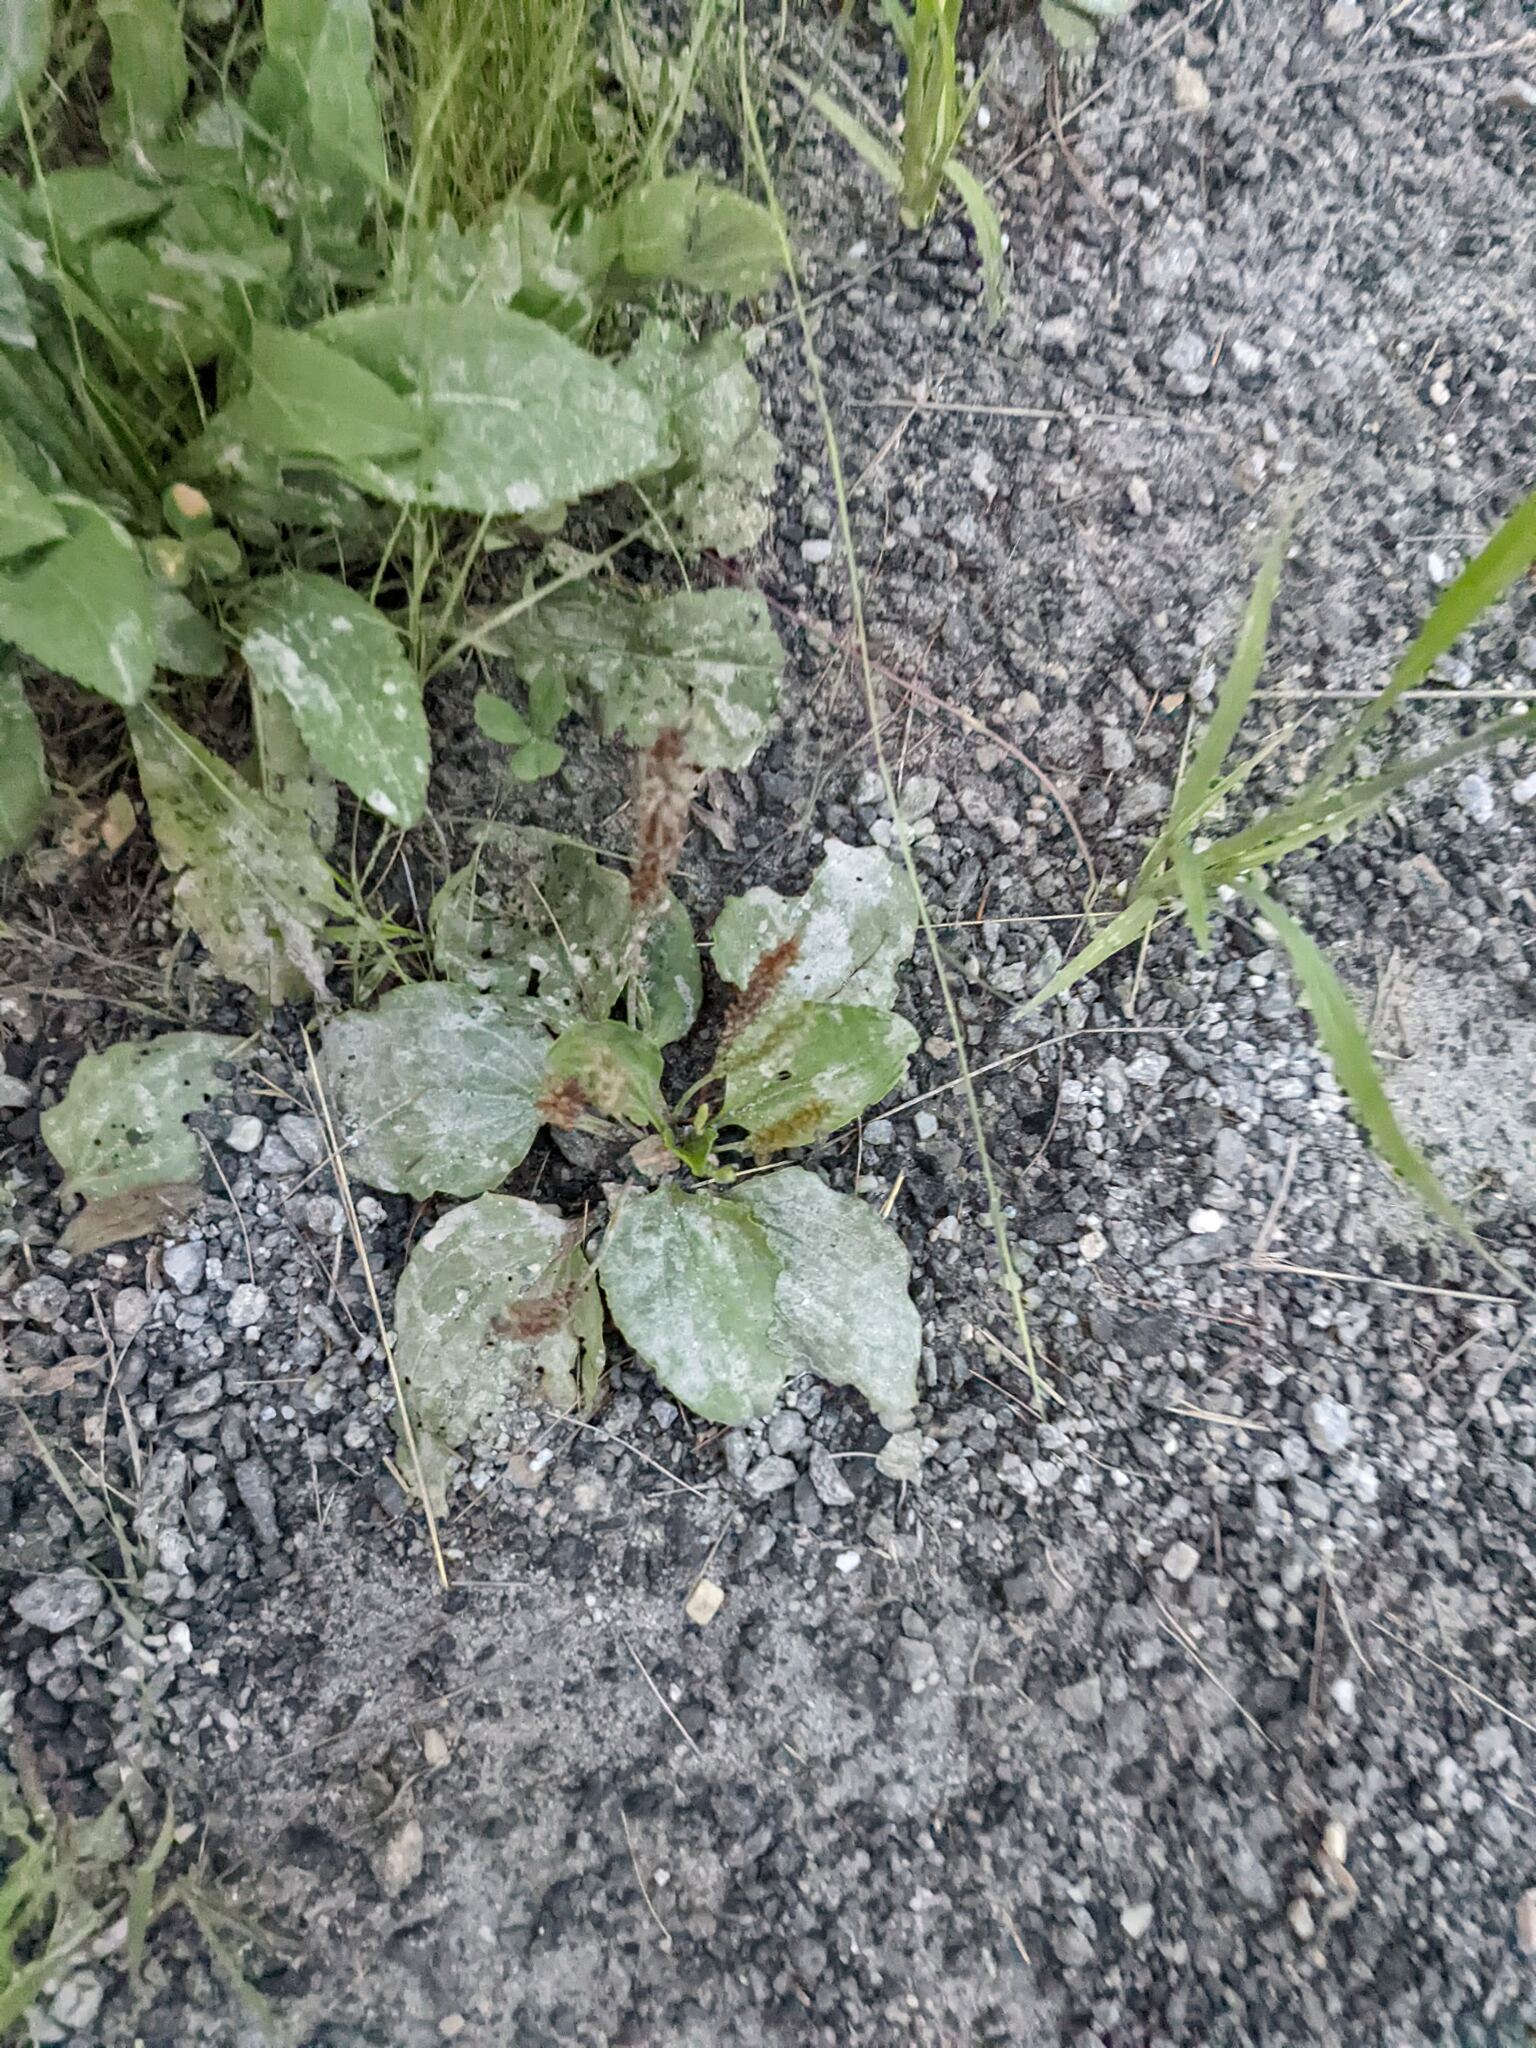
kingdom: Plantae
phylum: Tracheophyta
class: Magnoliopsida
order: Lamiales
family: Plantaginaceae
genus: Plantago
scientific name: Plantago major
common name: Common plantain
